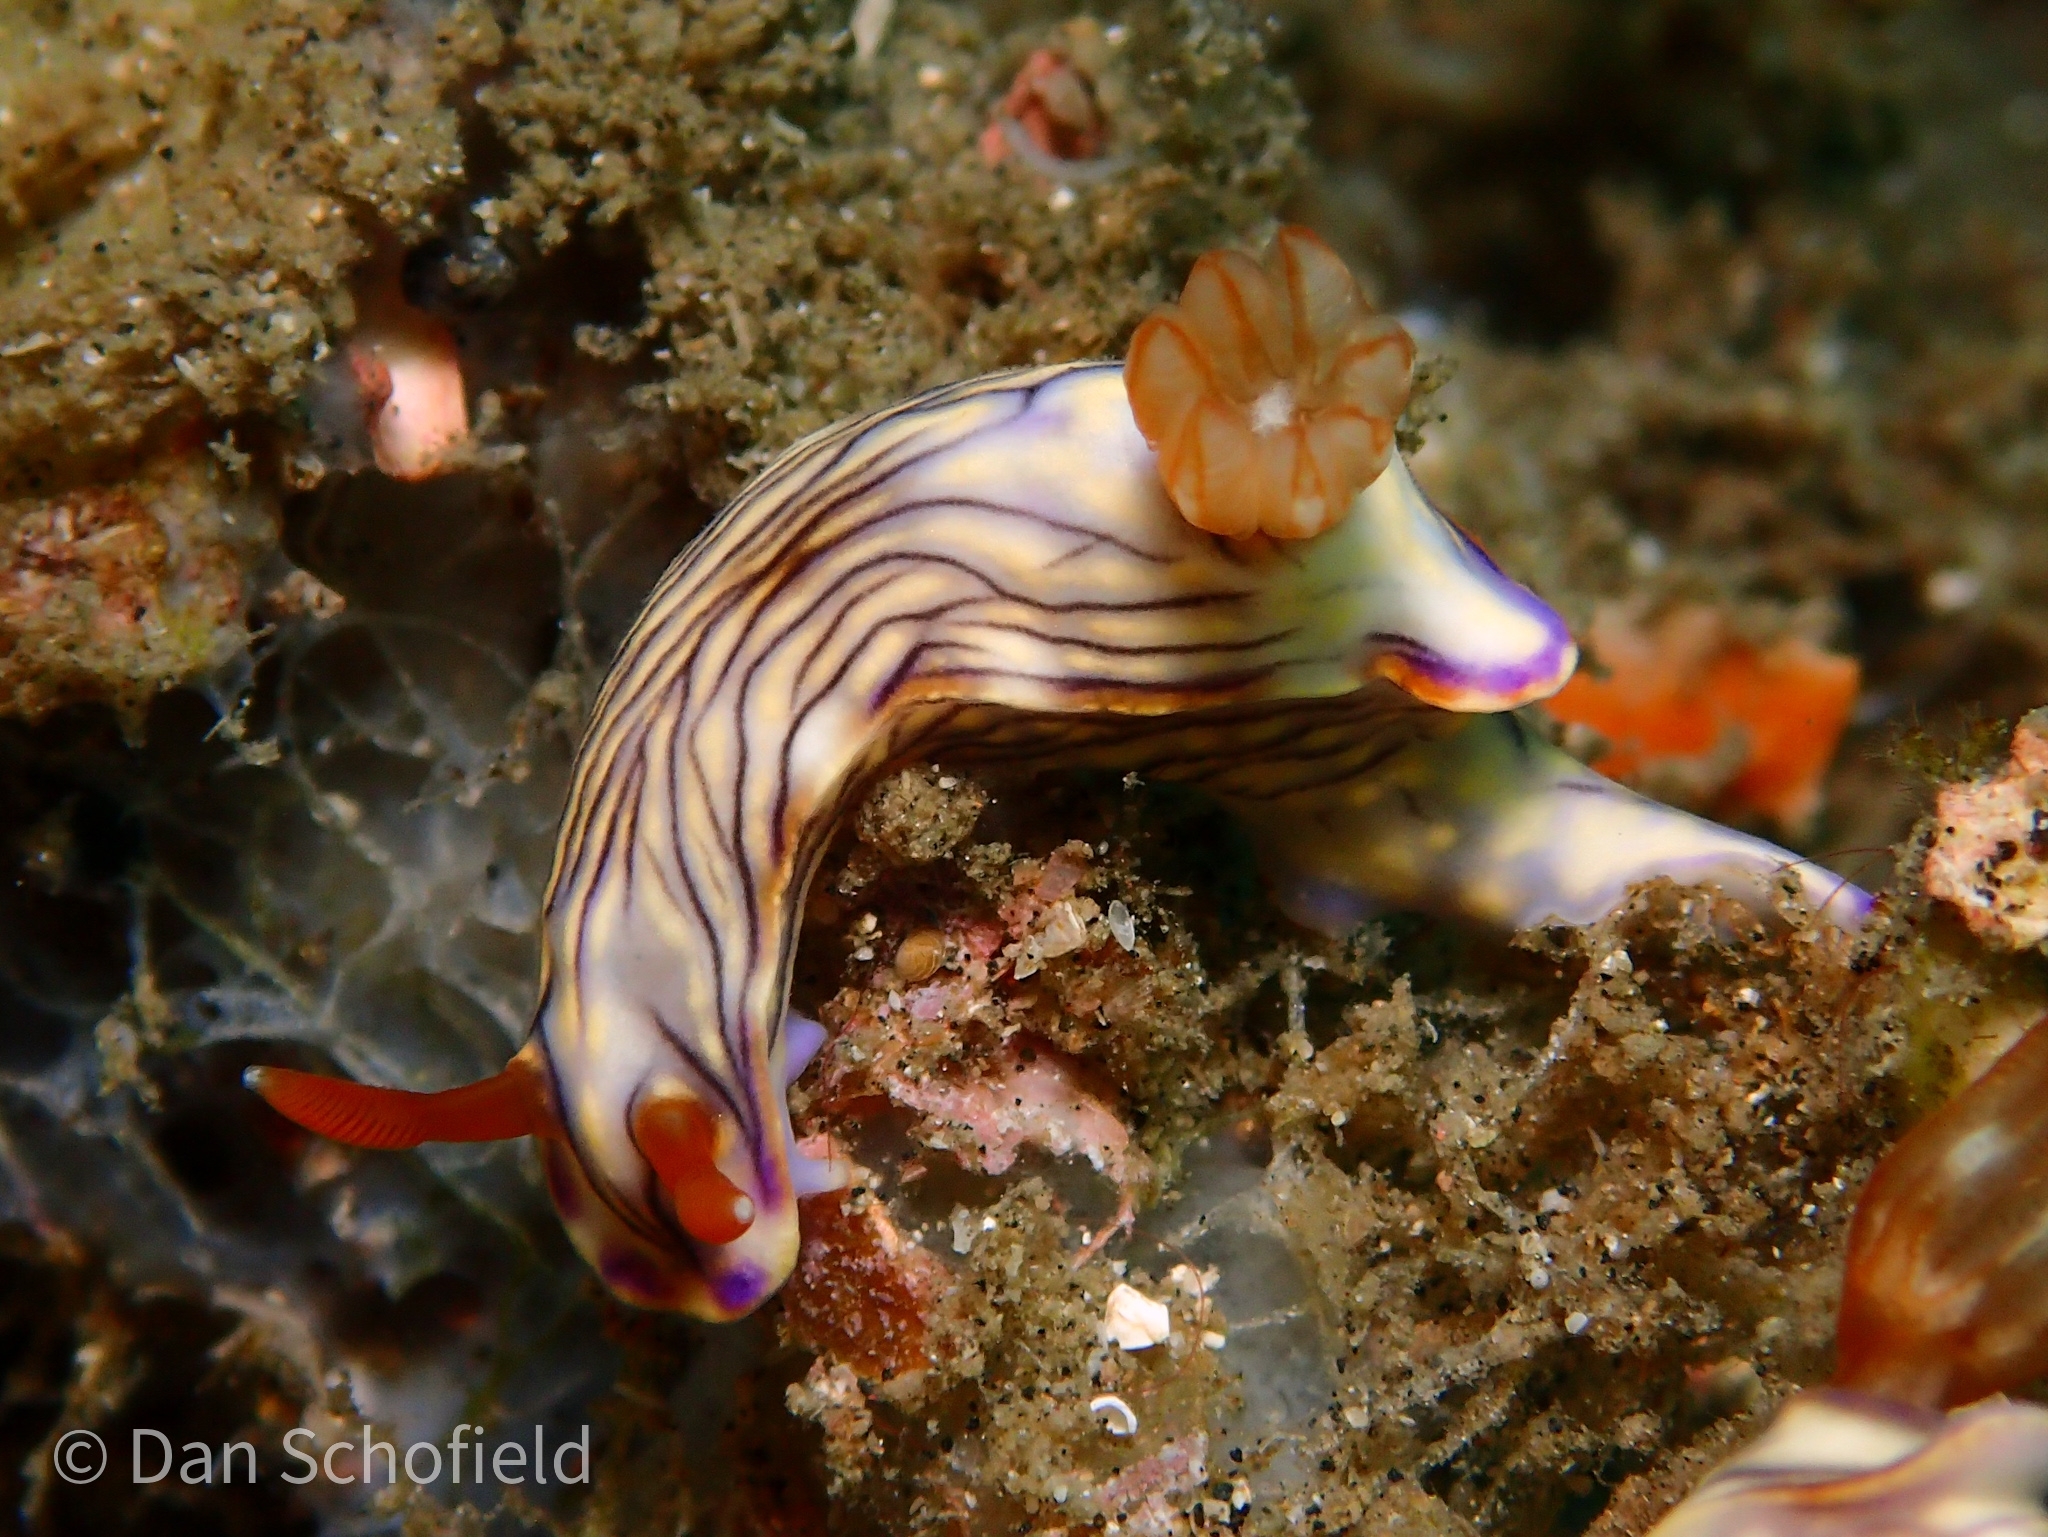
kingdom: Animalia
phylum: Mollusca
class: Gastropoda
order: Nudibranchia
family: Chromodorididae
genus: Hypselodoris
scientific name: Hypselodoris zephyra
